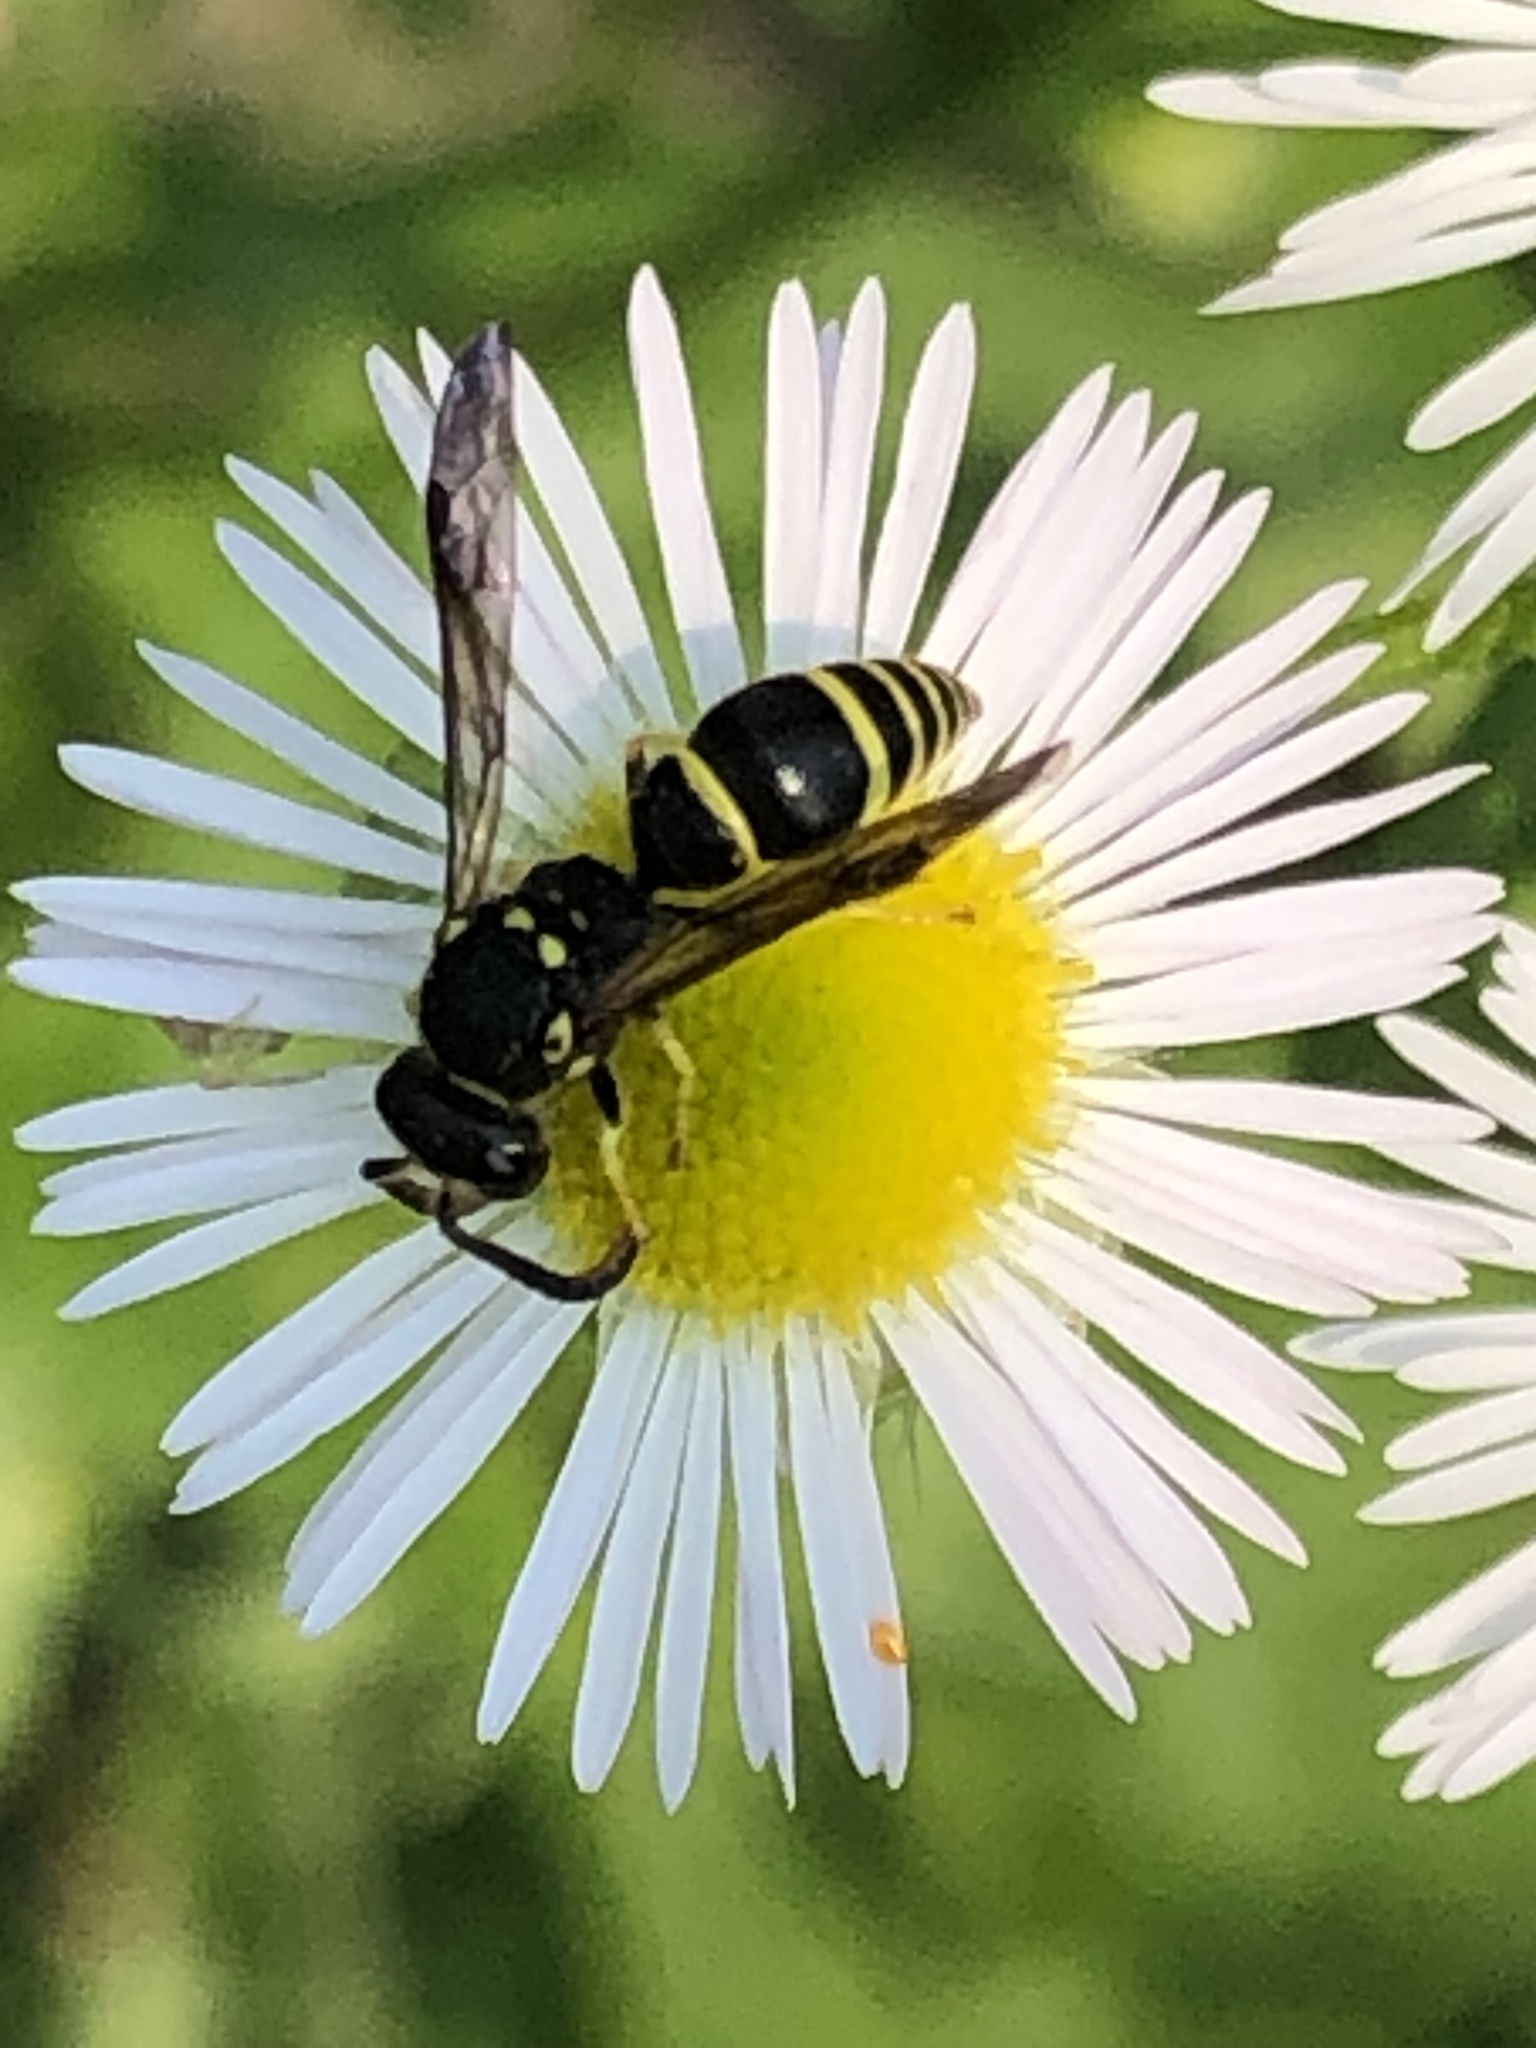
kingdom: Animalia
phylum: Arthropoda
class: Insecta
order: Hymenoptera
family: Vespidae
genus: Ancistrocerus
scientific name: Ancistrocerus adiabatus
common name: Bramble mason wasp
